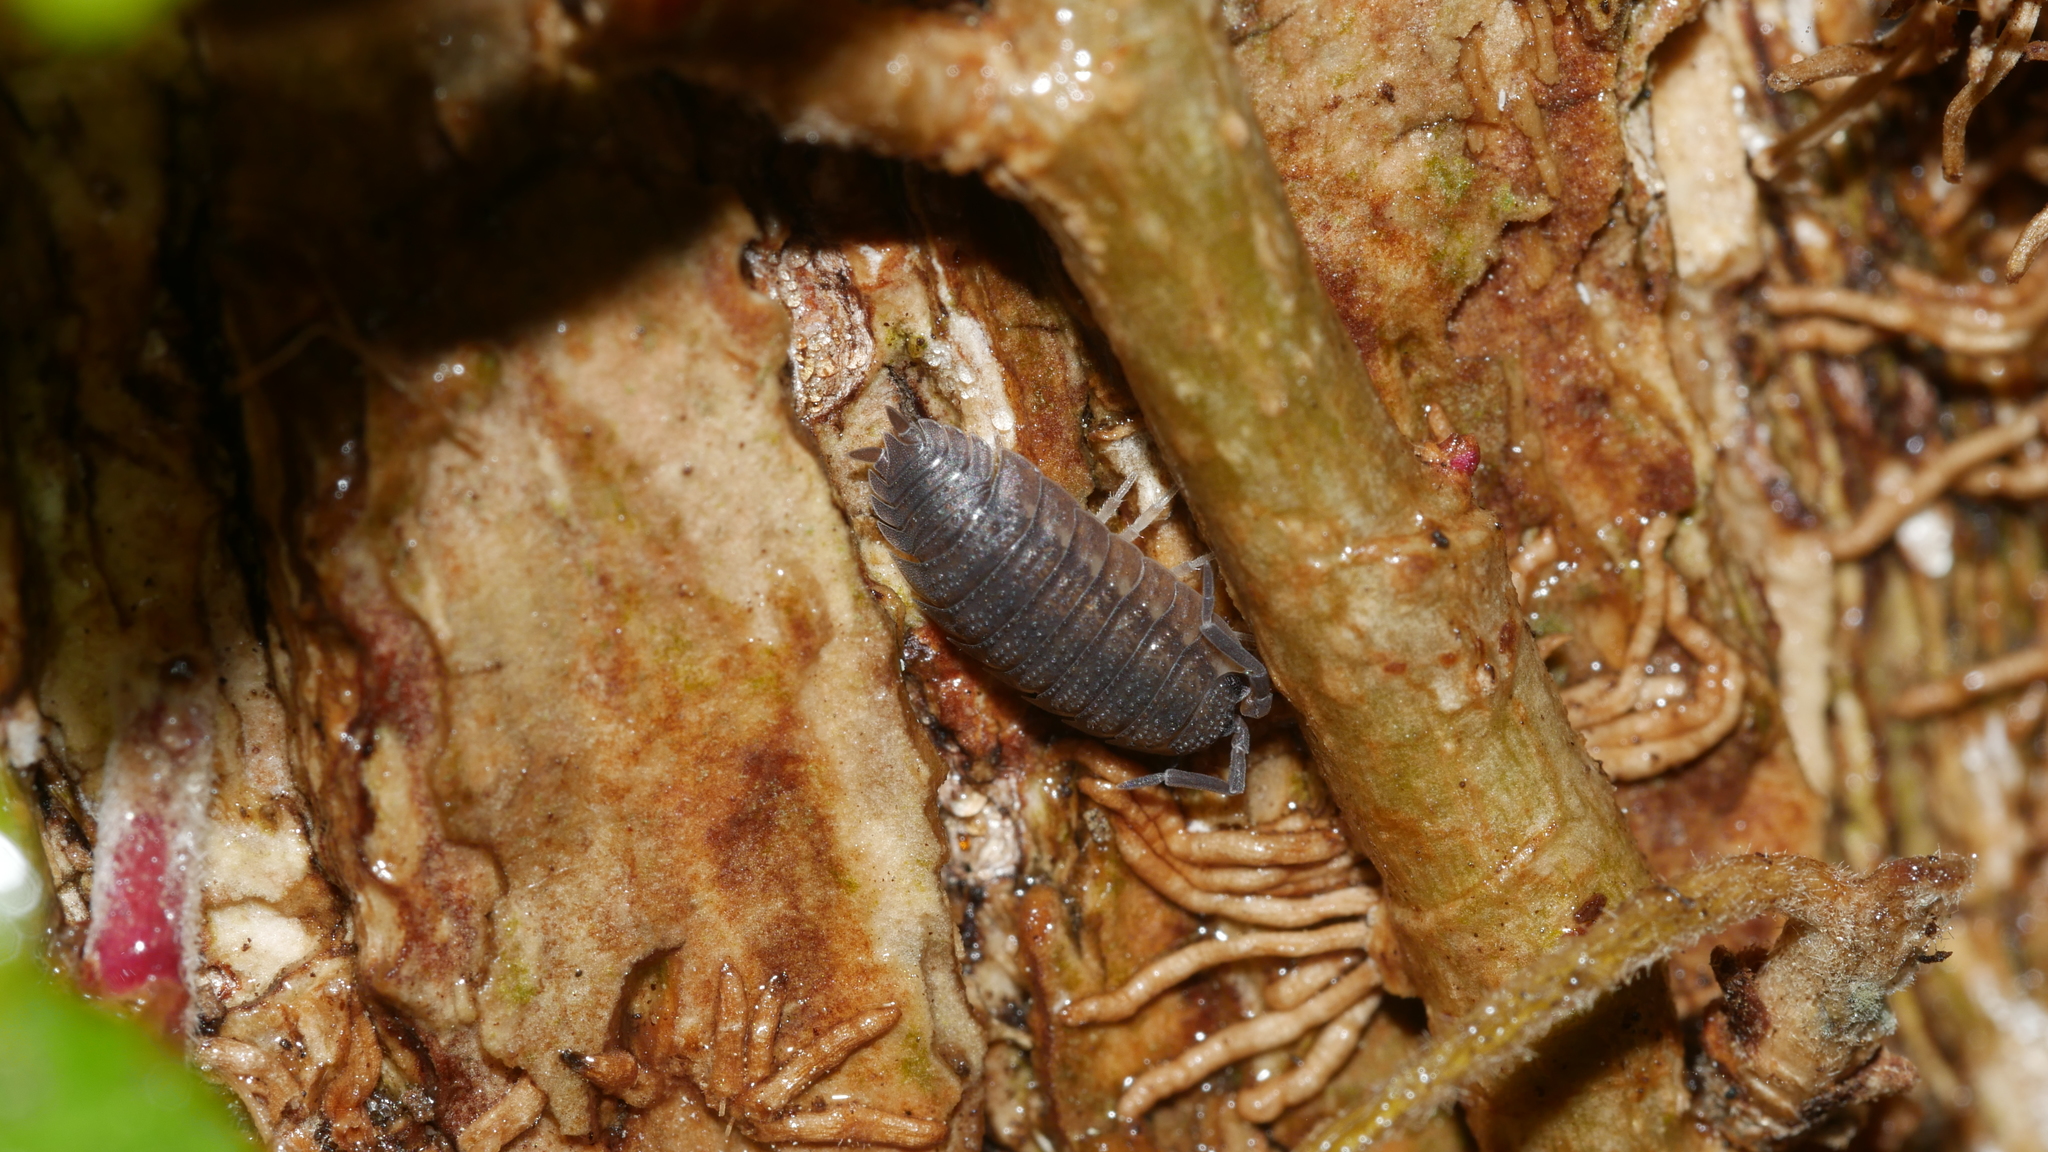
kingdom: Animalia
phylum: Arthropoda
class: Malacostraca
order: Isopoda
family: Porcellionidae
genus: Porcellio
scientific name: Porcellio scaber
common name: Common rough woodlouse
